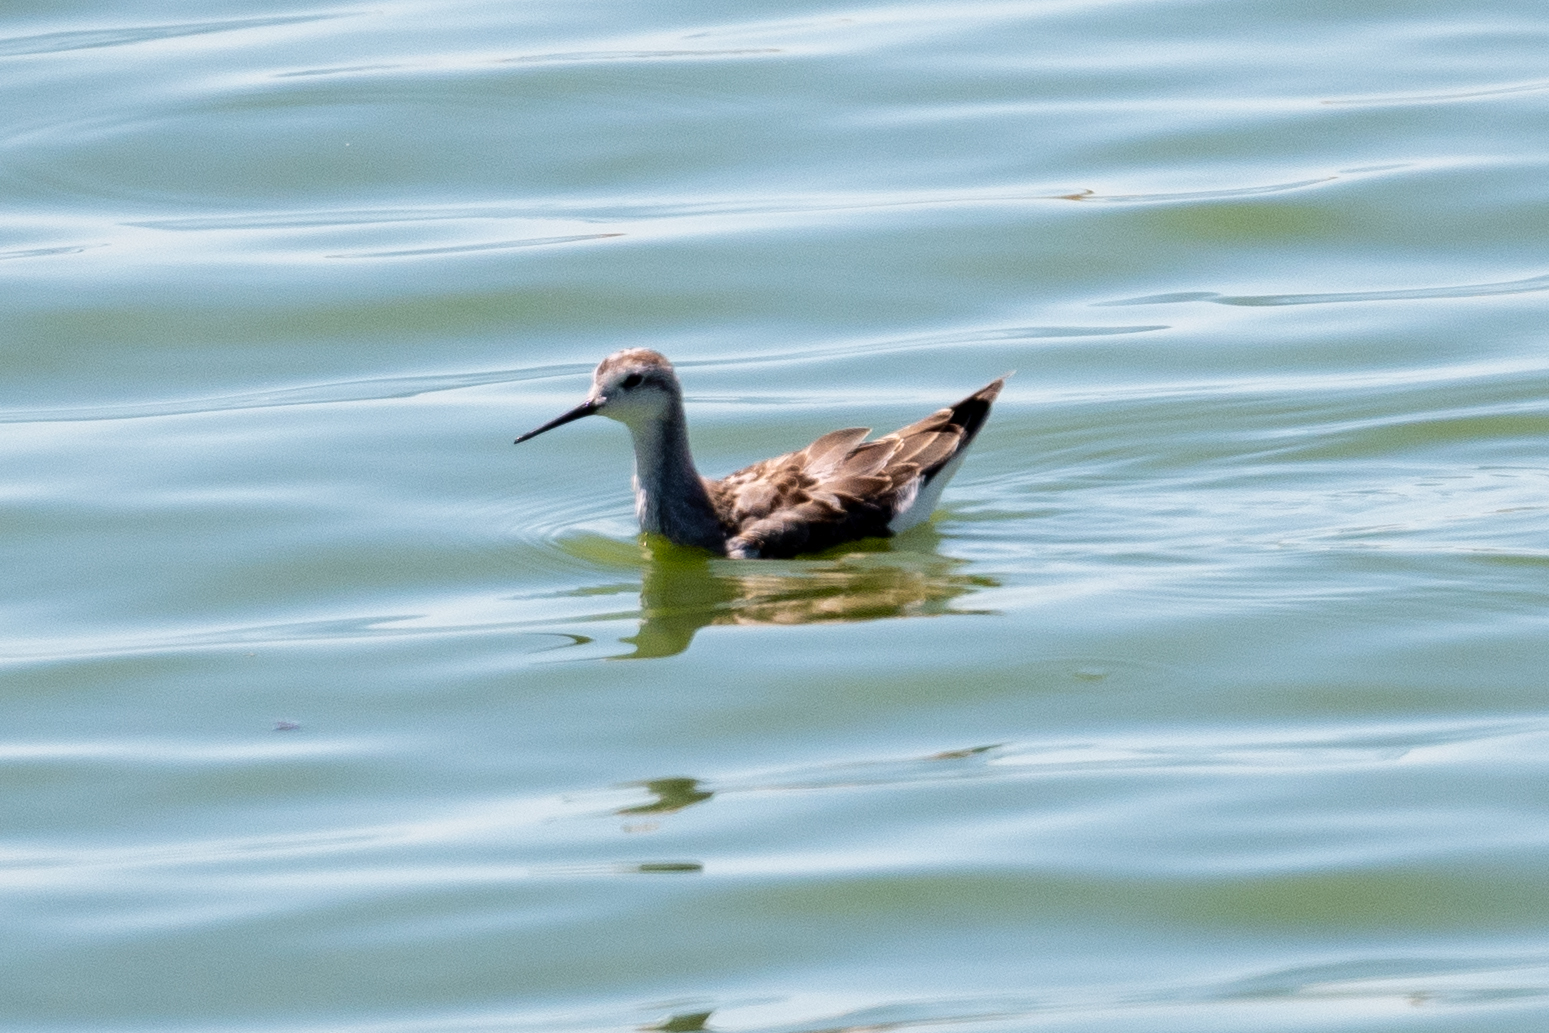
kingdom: Animalia
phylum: Chordata
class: Aves
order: Charadriiformes
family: Scolopacidae
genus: Phalaropus
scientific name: Phalaropus tricolor
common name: Wilson's phalarope
